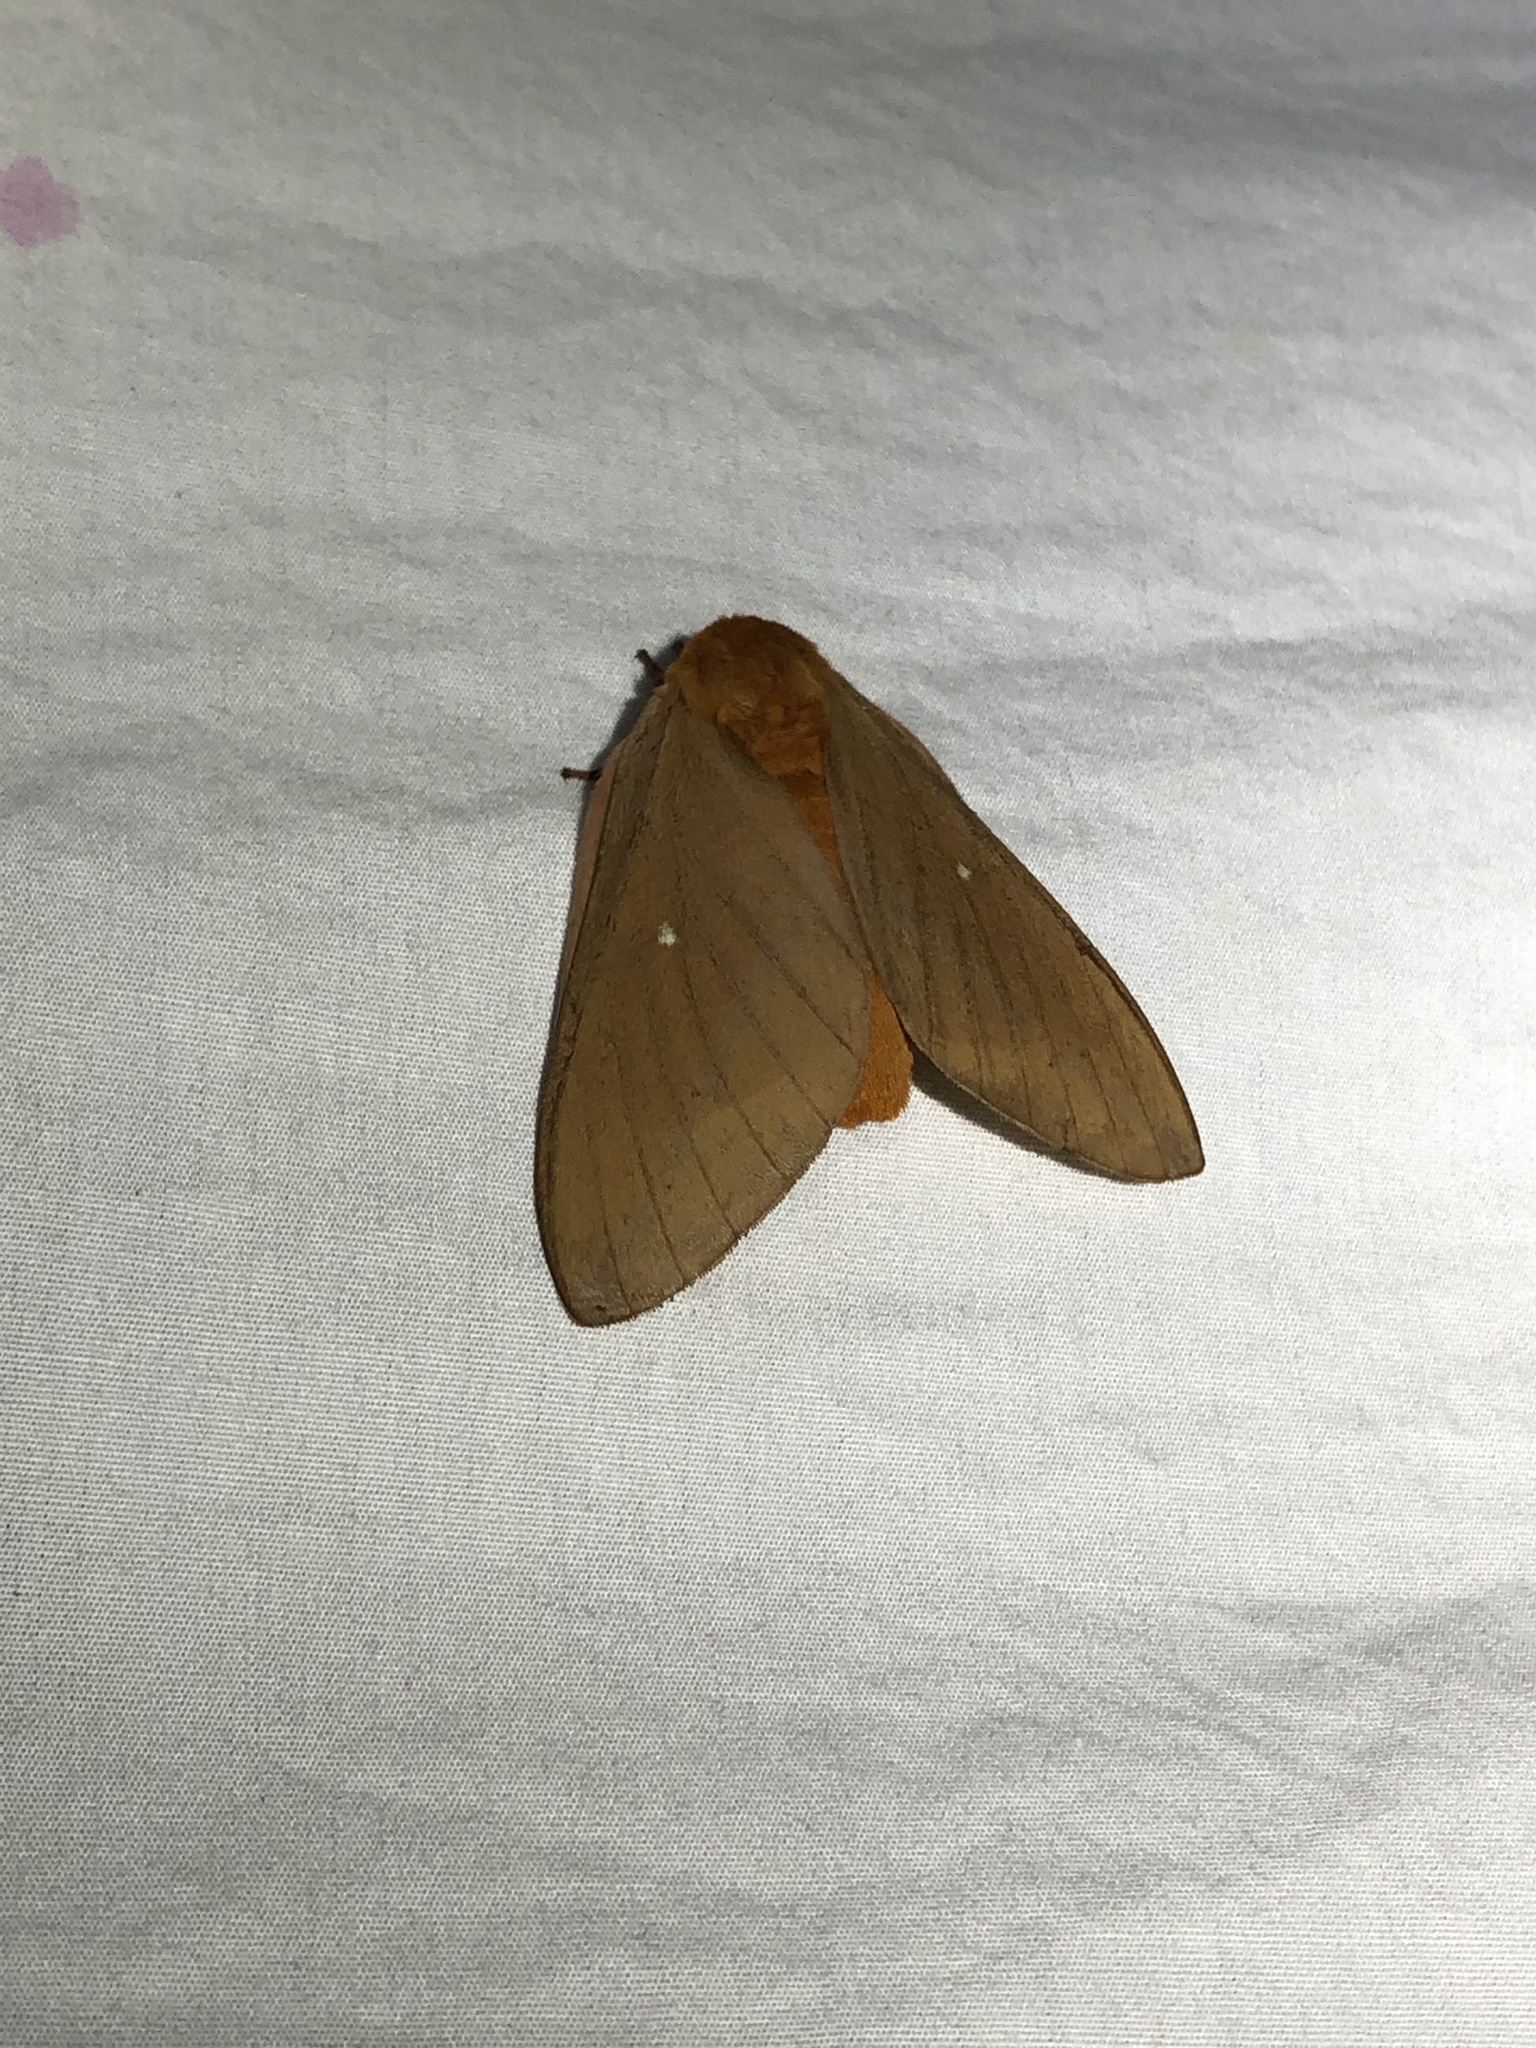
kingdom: Animalia
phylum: Arthropoda
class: Insecta
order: Lepidoptera
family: Saturniidae
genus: Anisota
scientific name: Anisota oslari
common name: Oslar's oakworm moth
